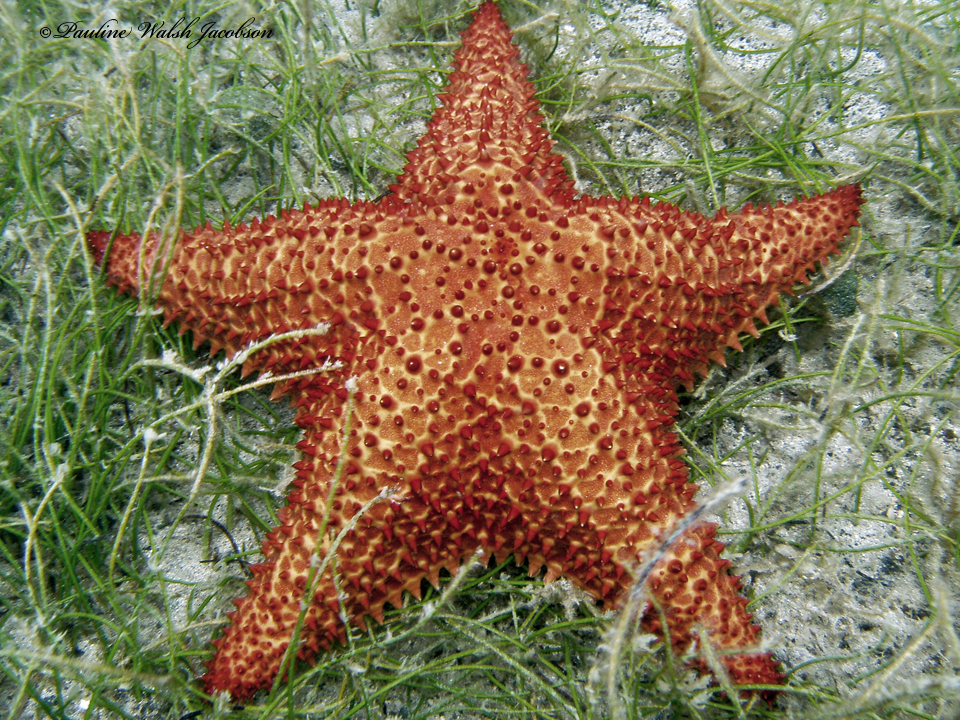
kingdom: Animalia
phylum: Echinodermata
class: Asteroidea
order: Valvatida
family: Oreasteridae
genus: Oreaster
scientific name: Oreaster reticulatus
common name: Cushion sea star
